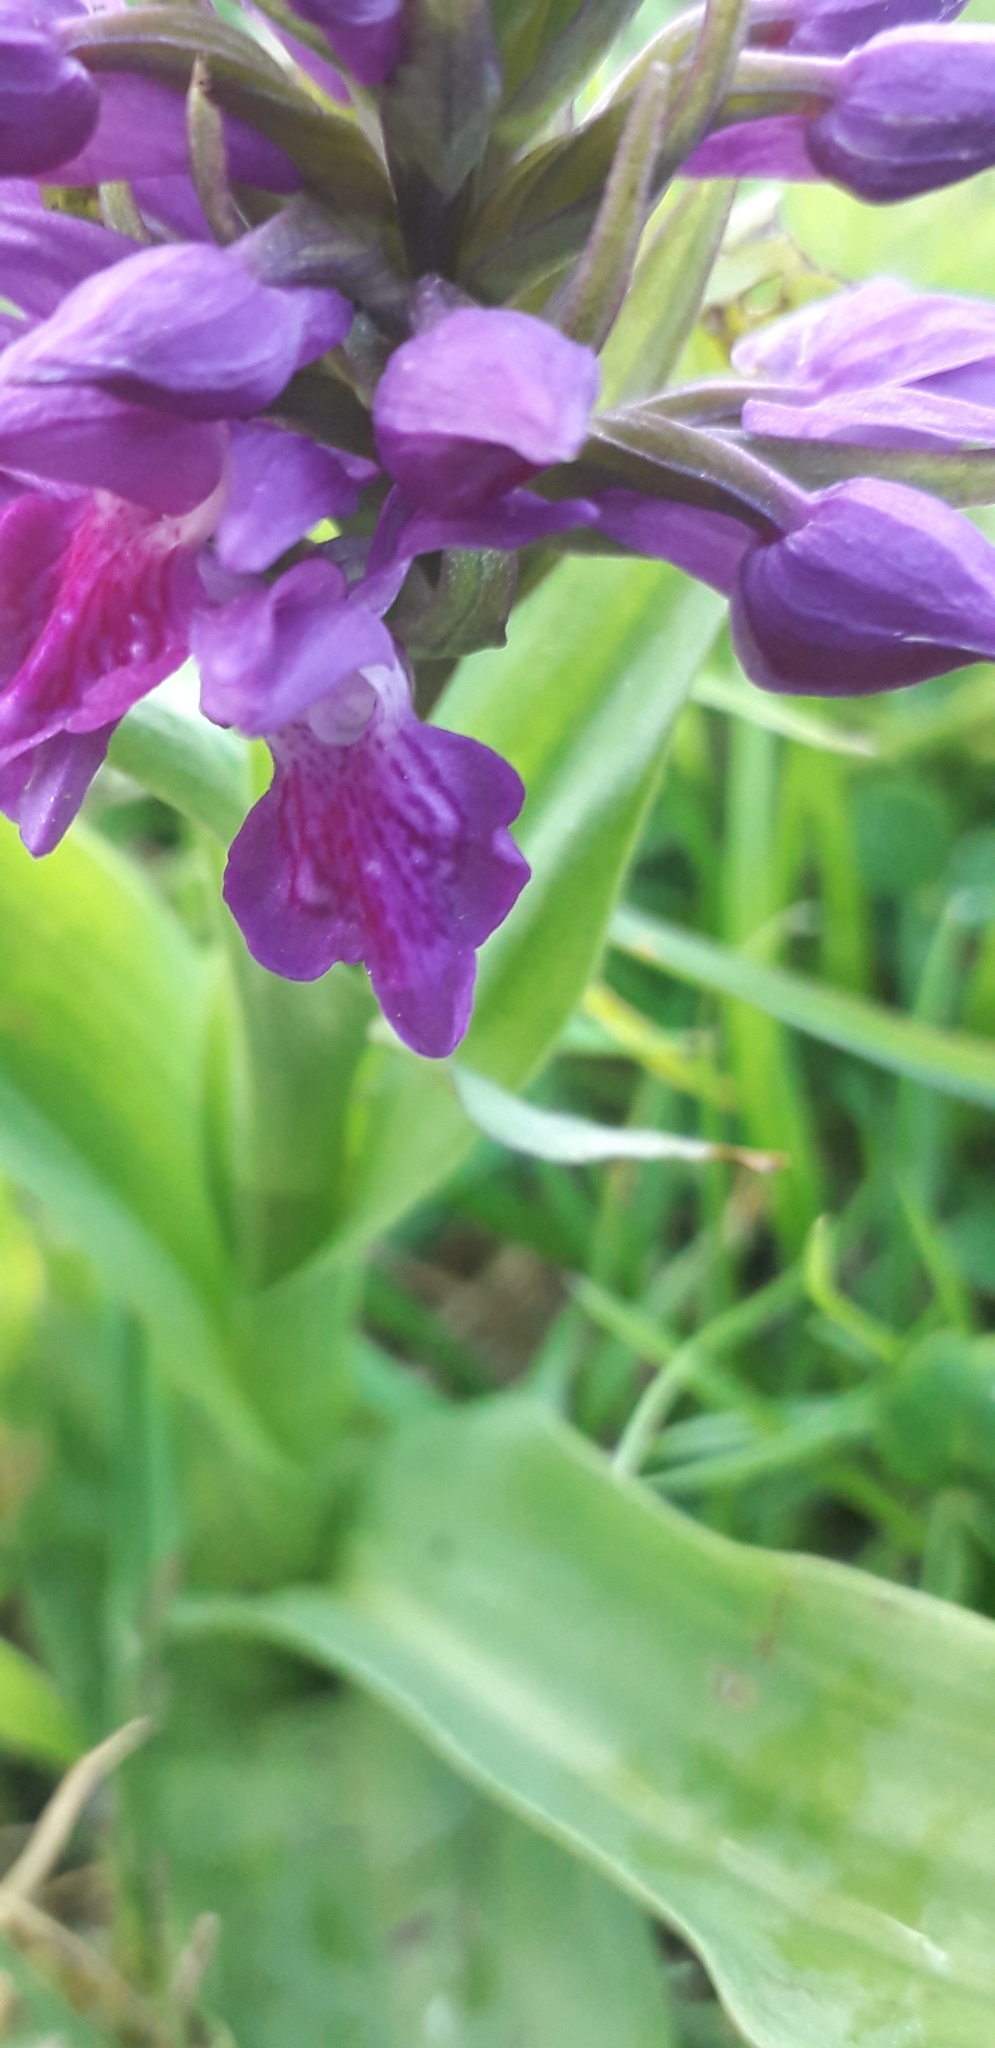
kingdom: Plantae
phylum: Tracheophyta
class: Liliopsida
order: Asparagales
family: Orchidaceae
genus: Dactylorhiza
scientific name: Dactylorhiza majalis
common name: Marsh orchid
